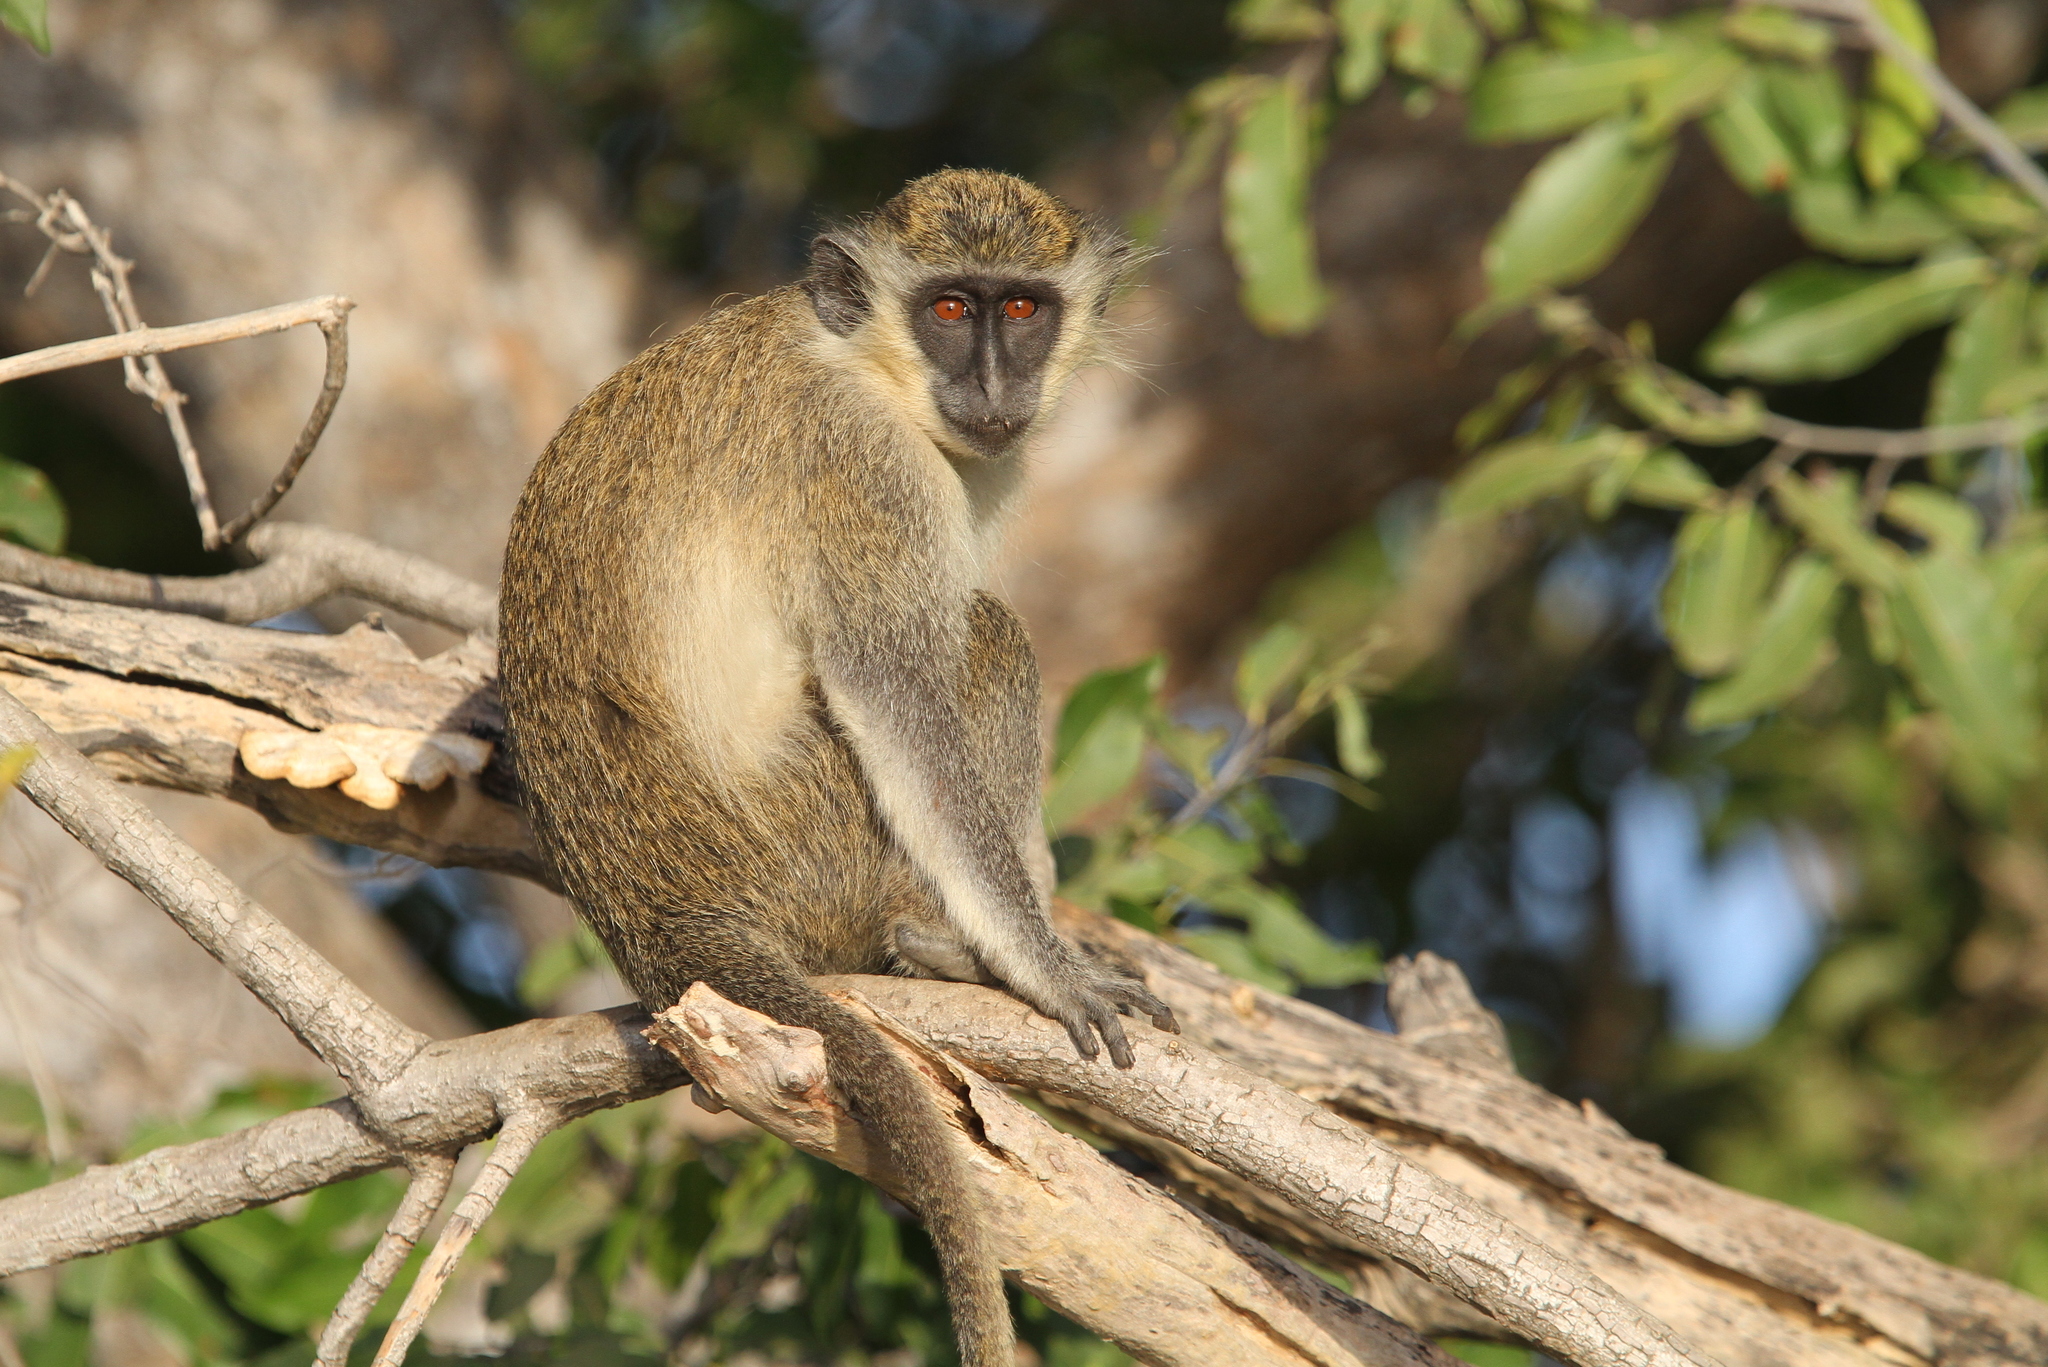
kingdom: Animalia
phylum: Chordata
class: Mammalia
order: Primates
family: Cercopithecidae
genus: Chlorocebus
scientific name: Chlorocebus sabaeus
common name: Green monkey
